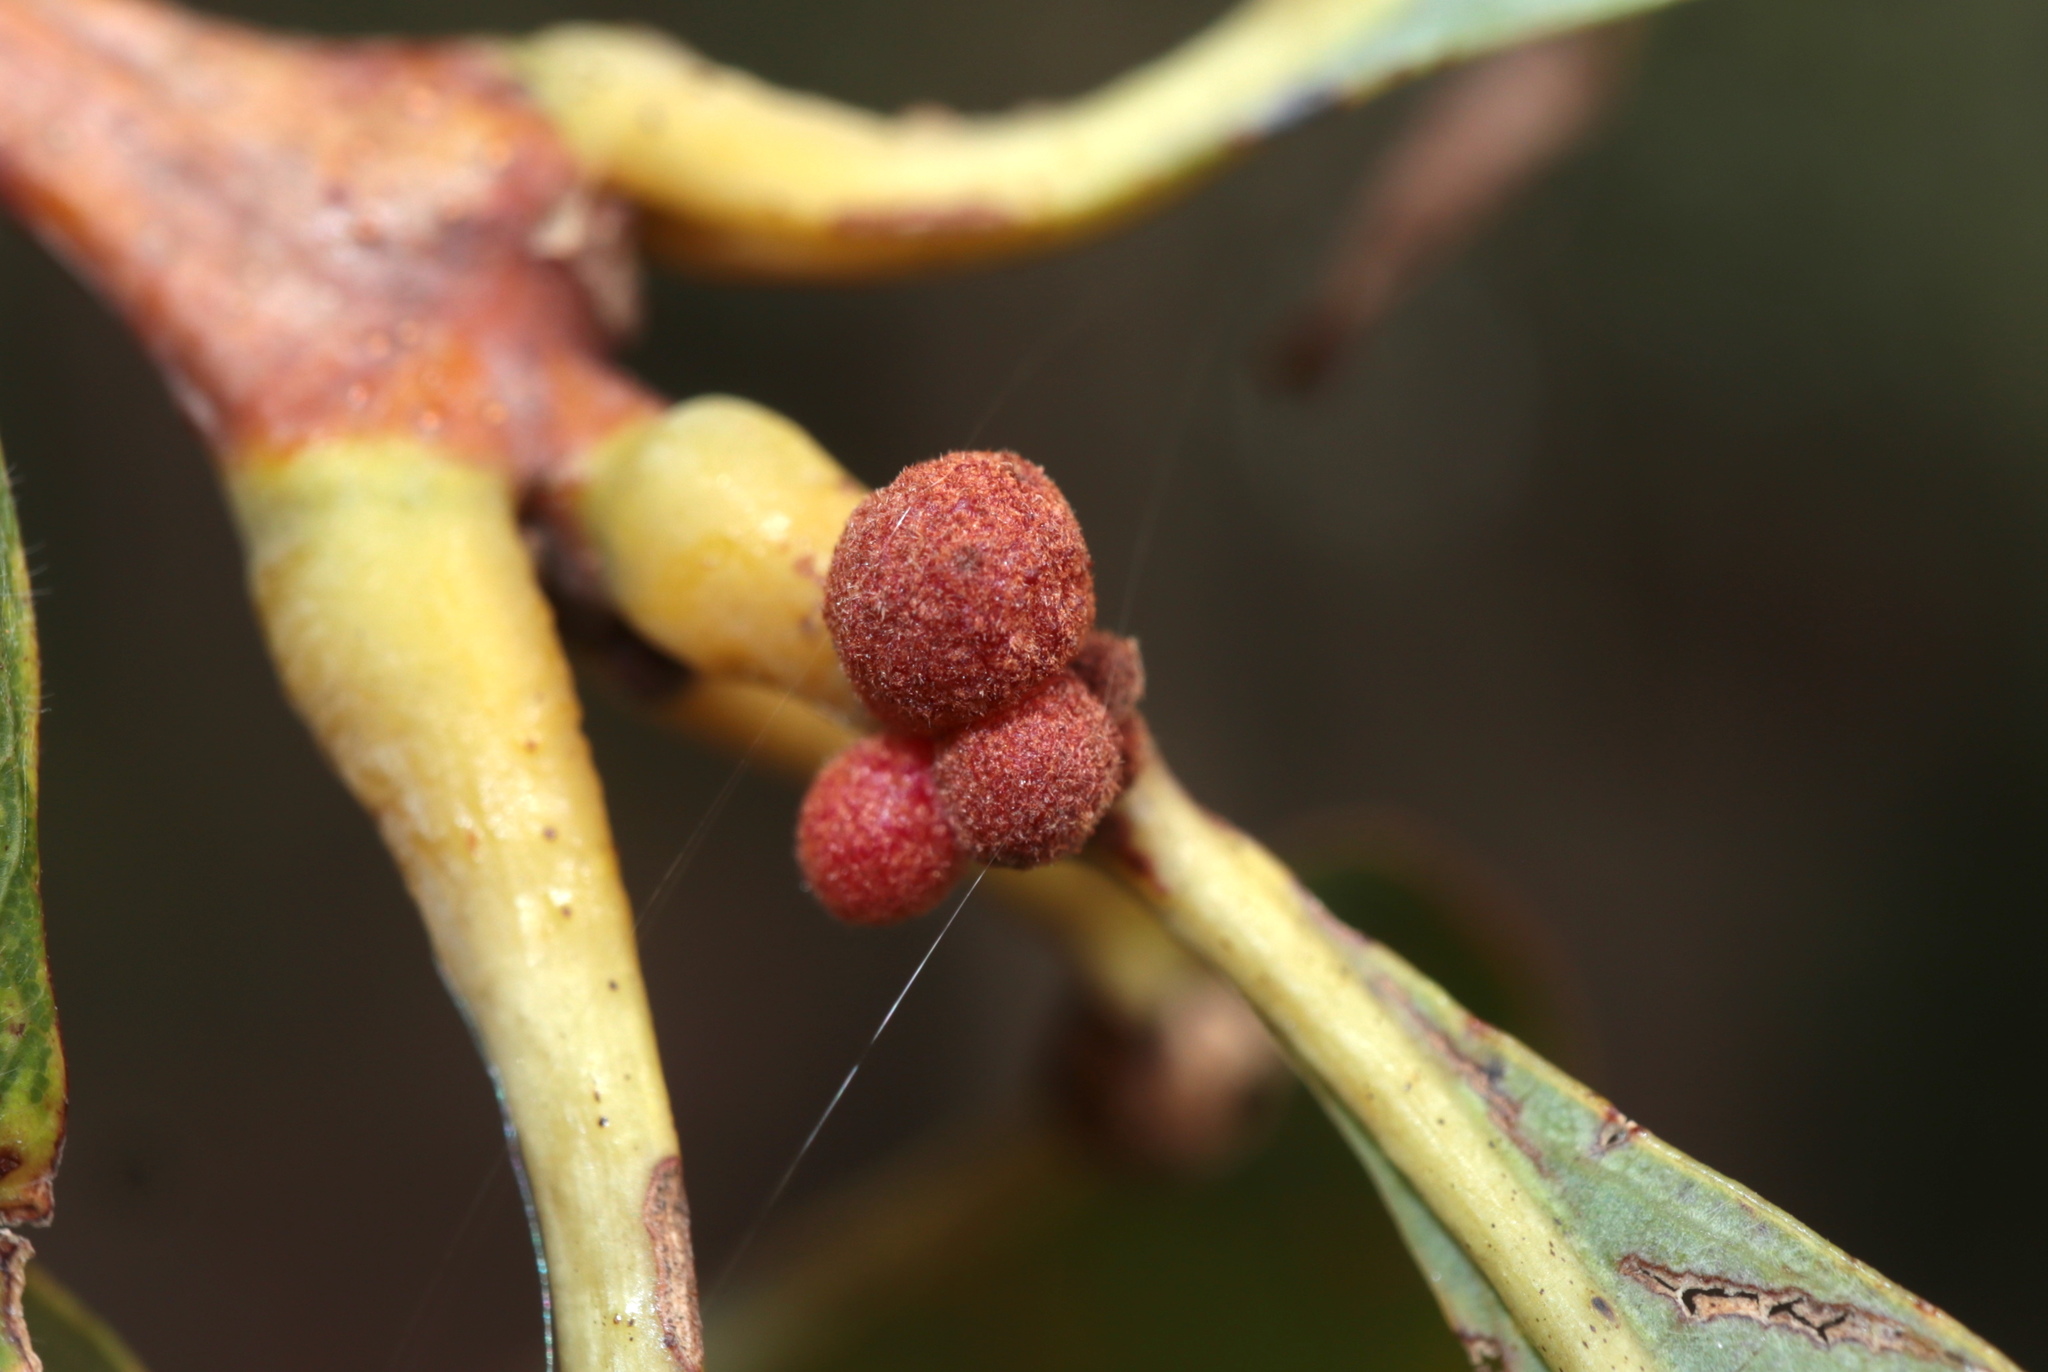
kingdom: Animalia
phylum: Arthropoda
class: Insecta
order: Hymenoptera
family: Cynipidae
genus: Andricus
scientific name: Andricus
